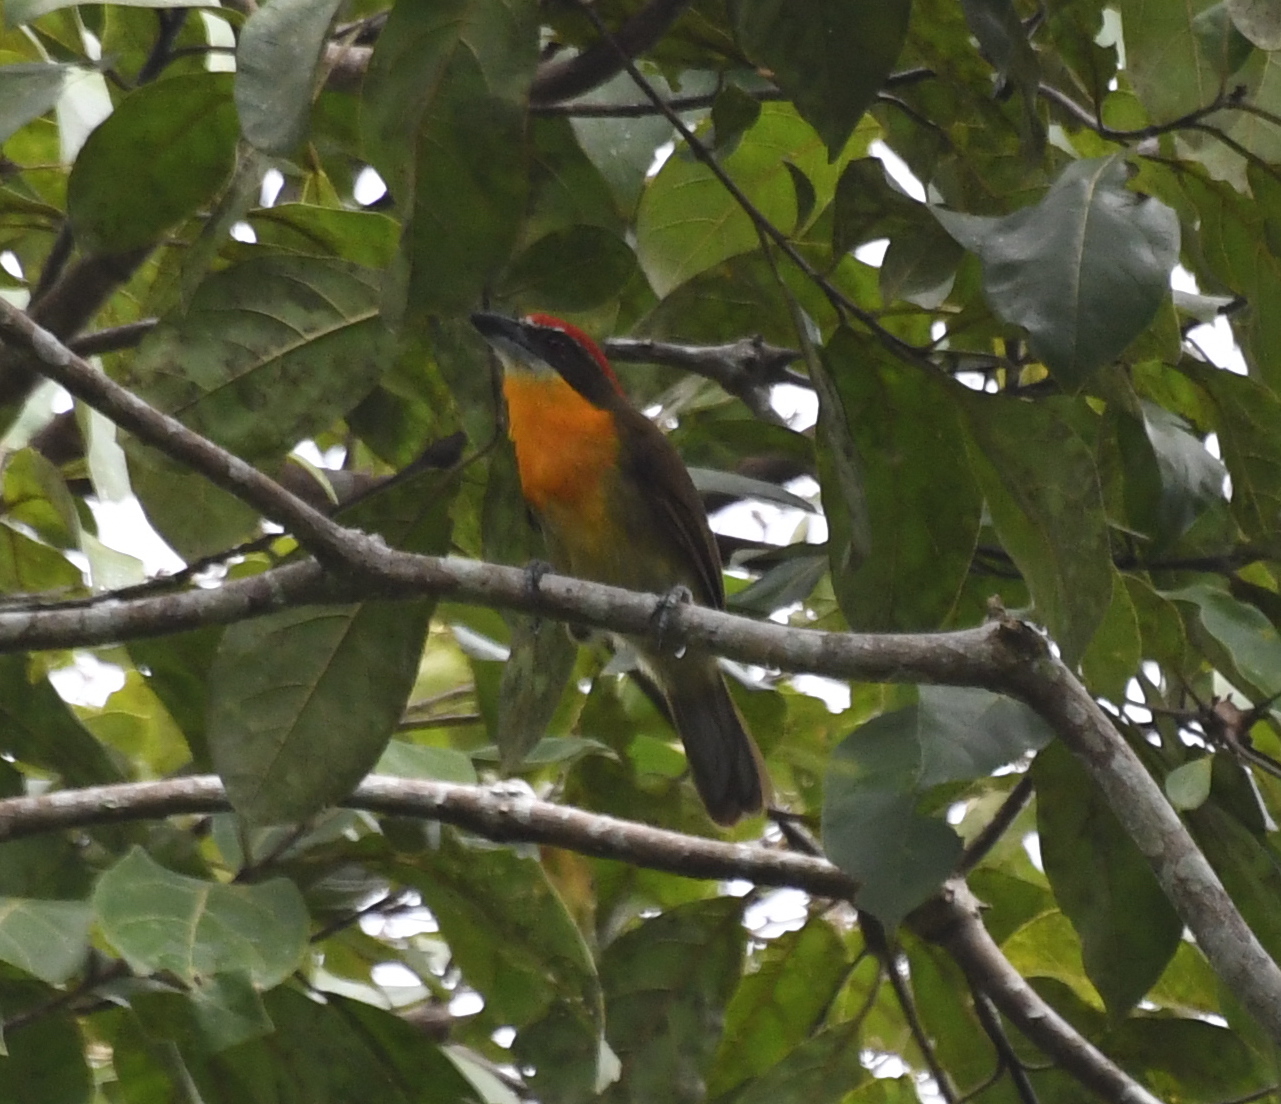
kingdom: Animalia
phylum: Chordata
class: Aves
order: Piciformes
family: Capitonidae
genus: Capito
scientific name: Capito aurovirens
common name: Scarlet-crowned barbet
